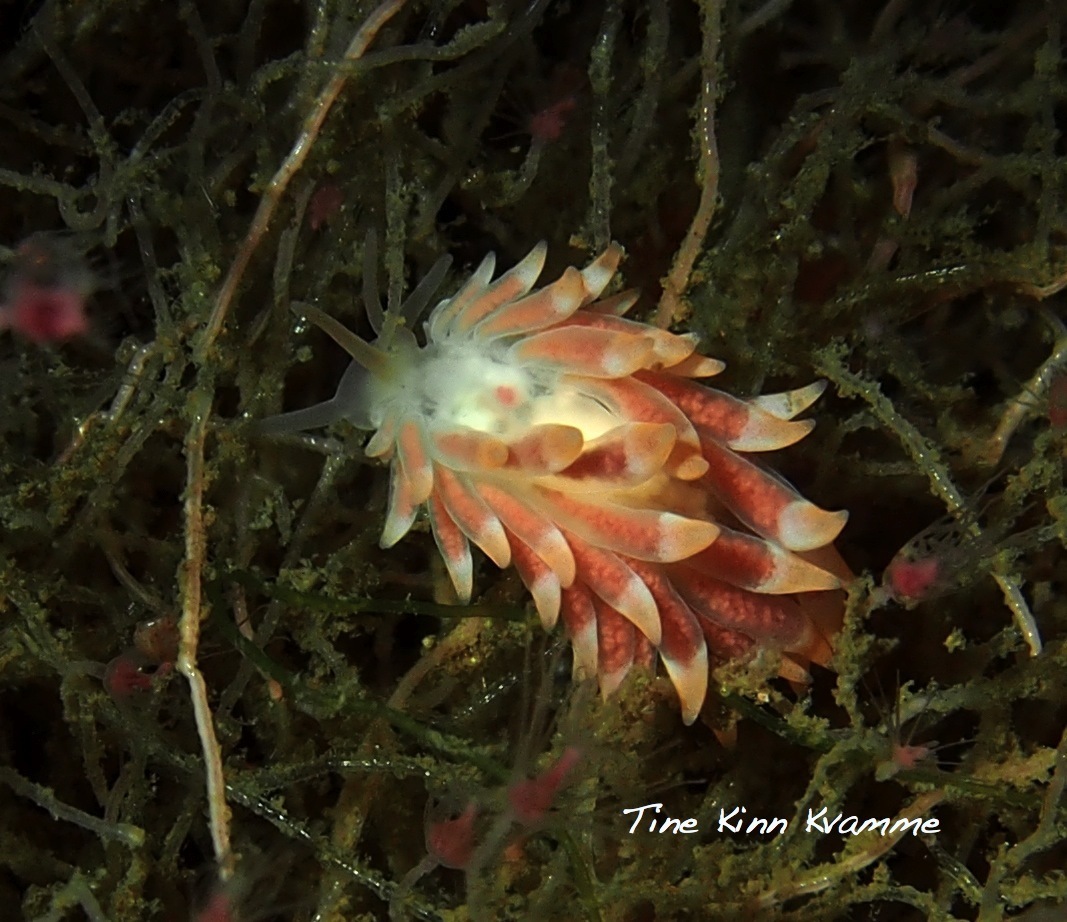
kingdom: Animalia
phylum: Mollusca
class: Gastropoda
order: Nudibranchia
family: Trinchesiidae
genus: Catriona
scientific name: Catriona aurantia
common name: Corange-tip cuthona
